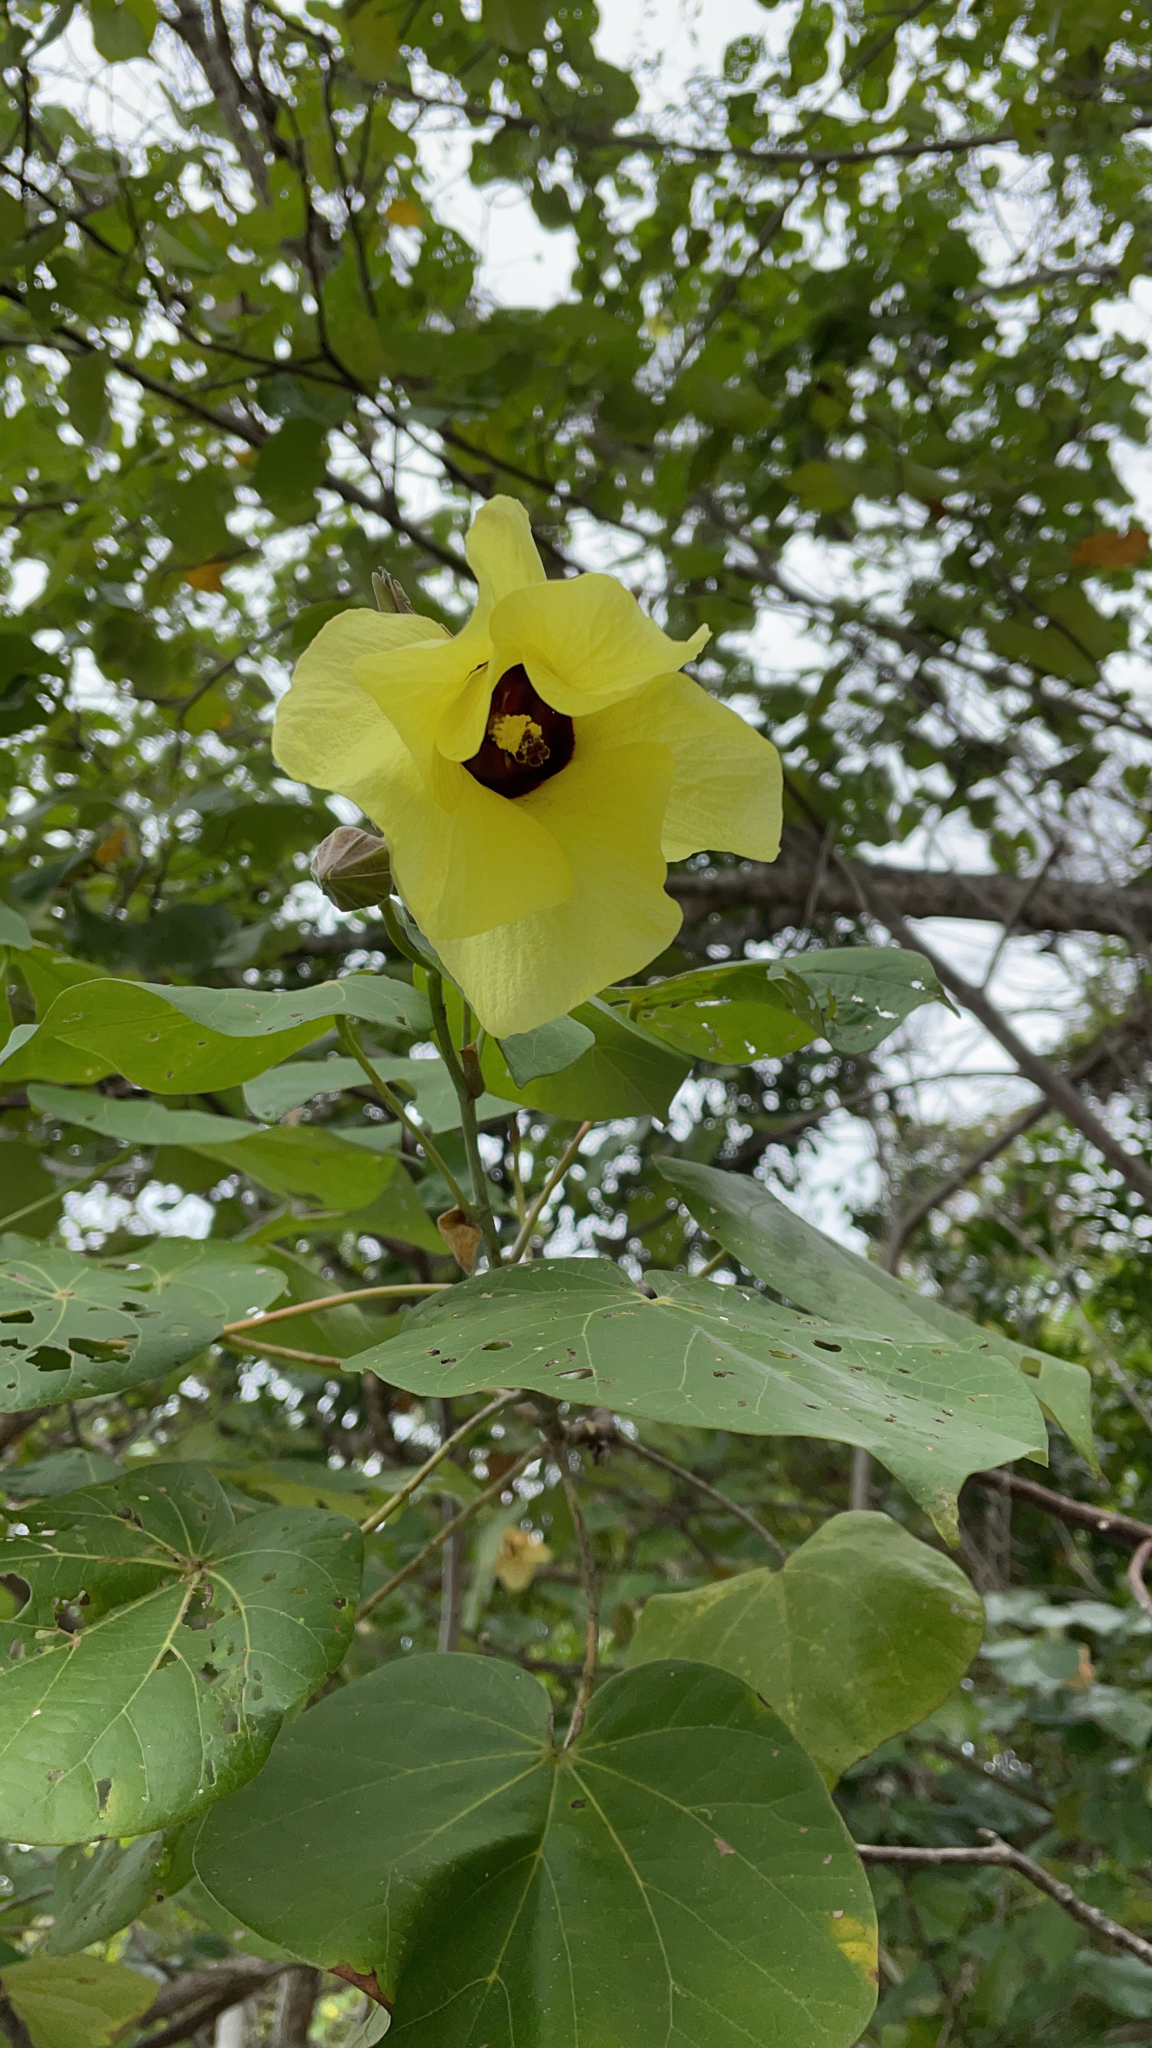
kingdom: Plantae
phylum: Tracheophyta
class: Magnoliopsida
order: Malvales
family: Malvaceae
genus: Talipariti
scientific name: Talipariti tiliaceum
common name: Sea hibiscus
